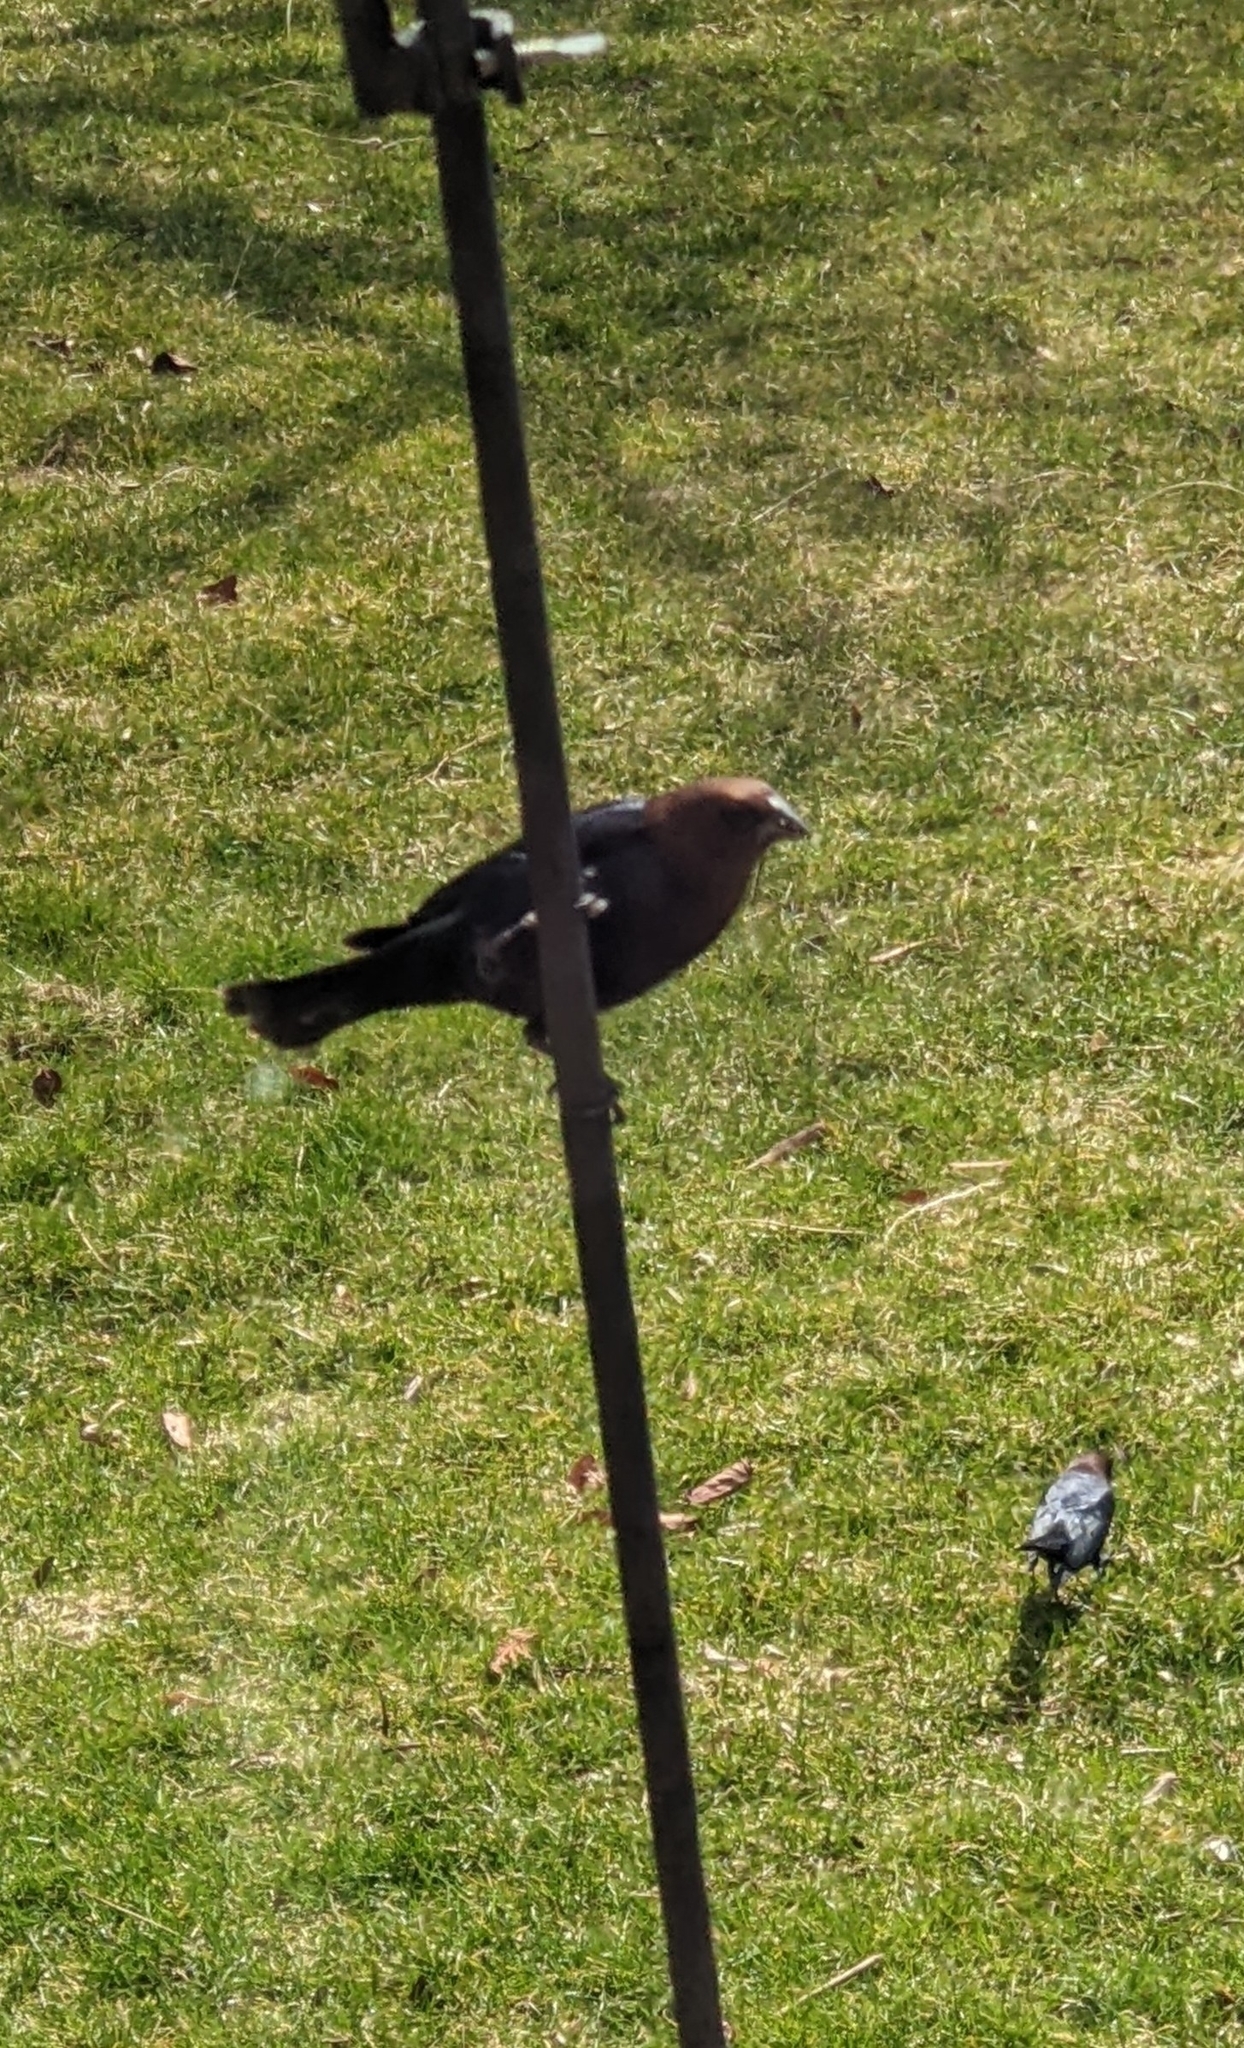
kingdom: Animalia
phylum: Chordata
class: Aves
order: Passeriformes
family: Icteridae
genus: Molothrus
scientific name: Molothrus ater
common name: Brown-headed cowbird
